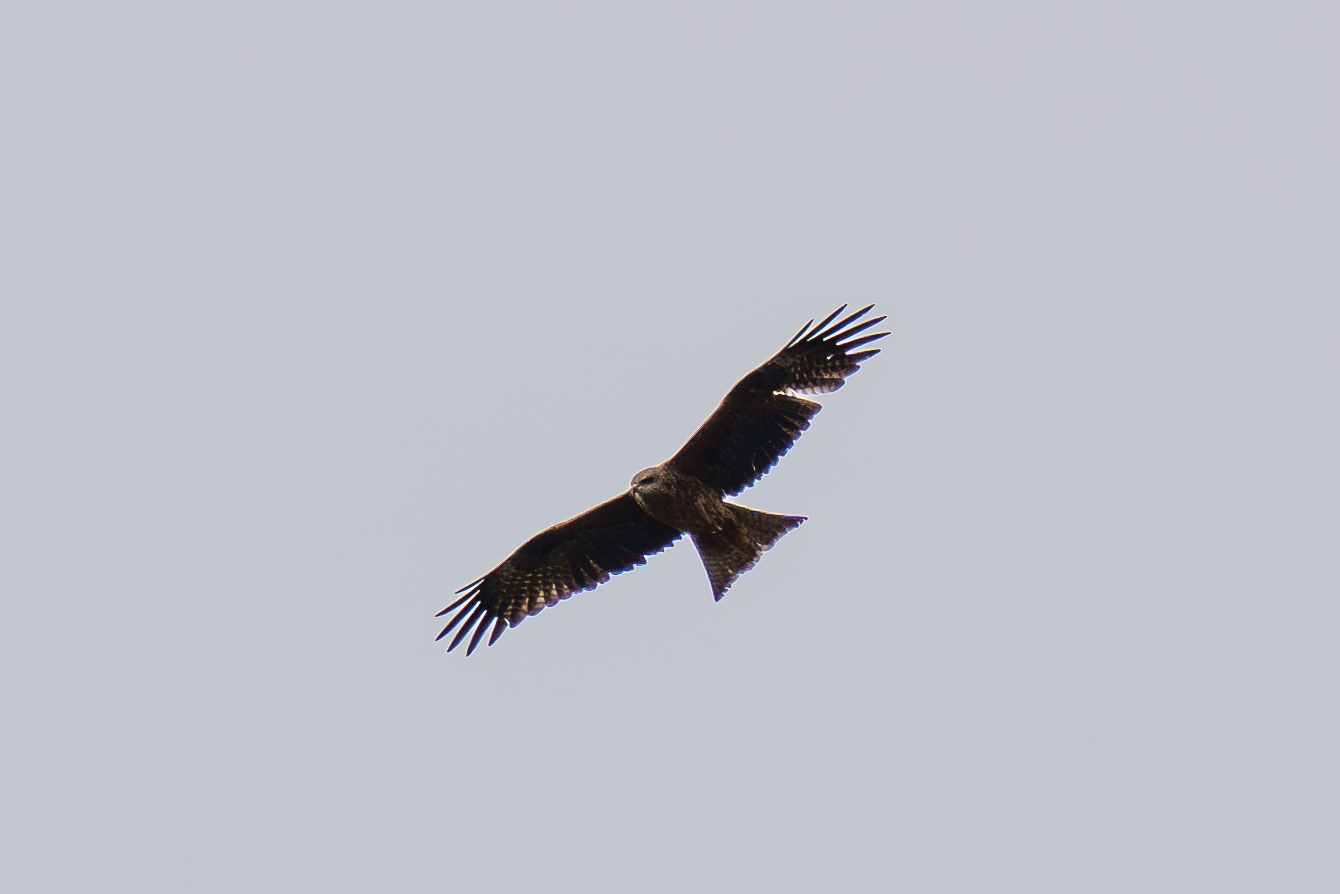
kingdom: Animalia
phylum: Chordata
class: Aves
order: Accipitriformes
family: Accipitridae
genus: Milvus
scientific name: Milvus migrans
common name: Black kite
